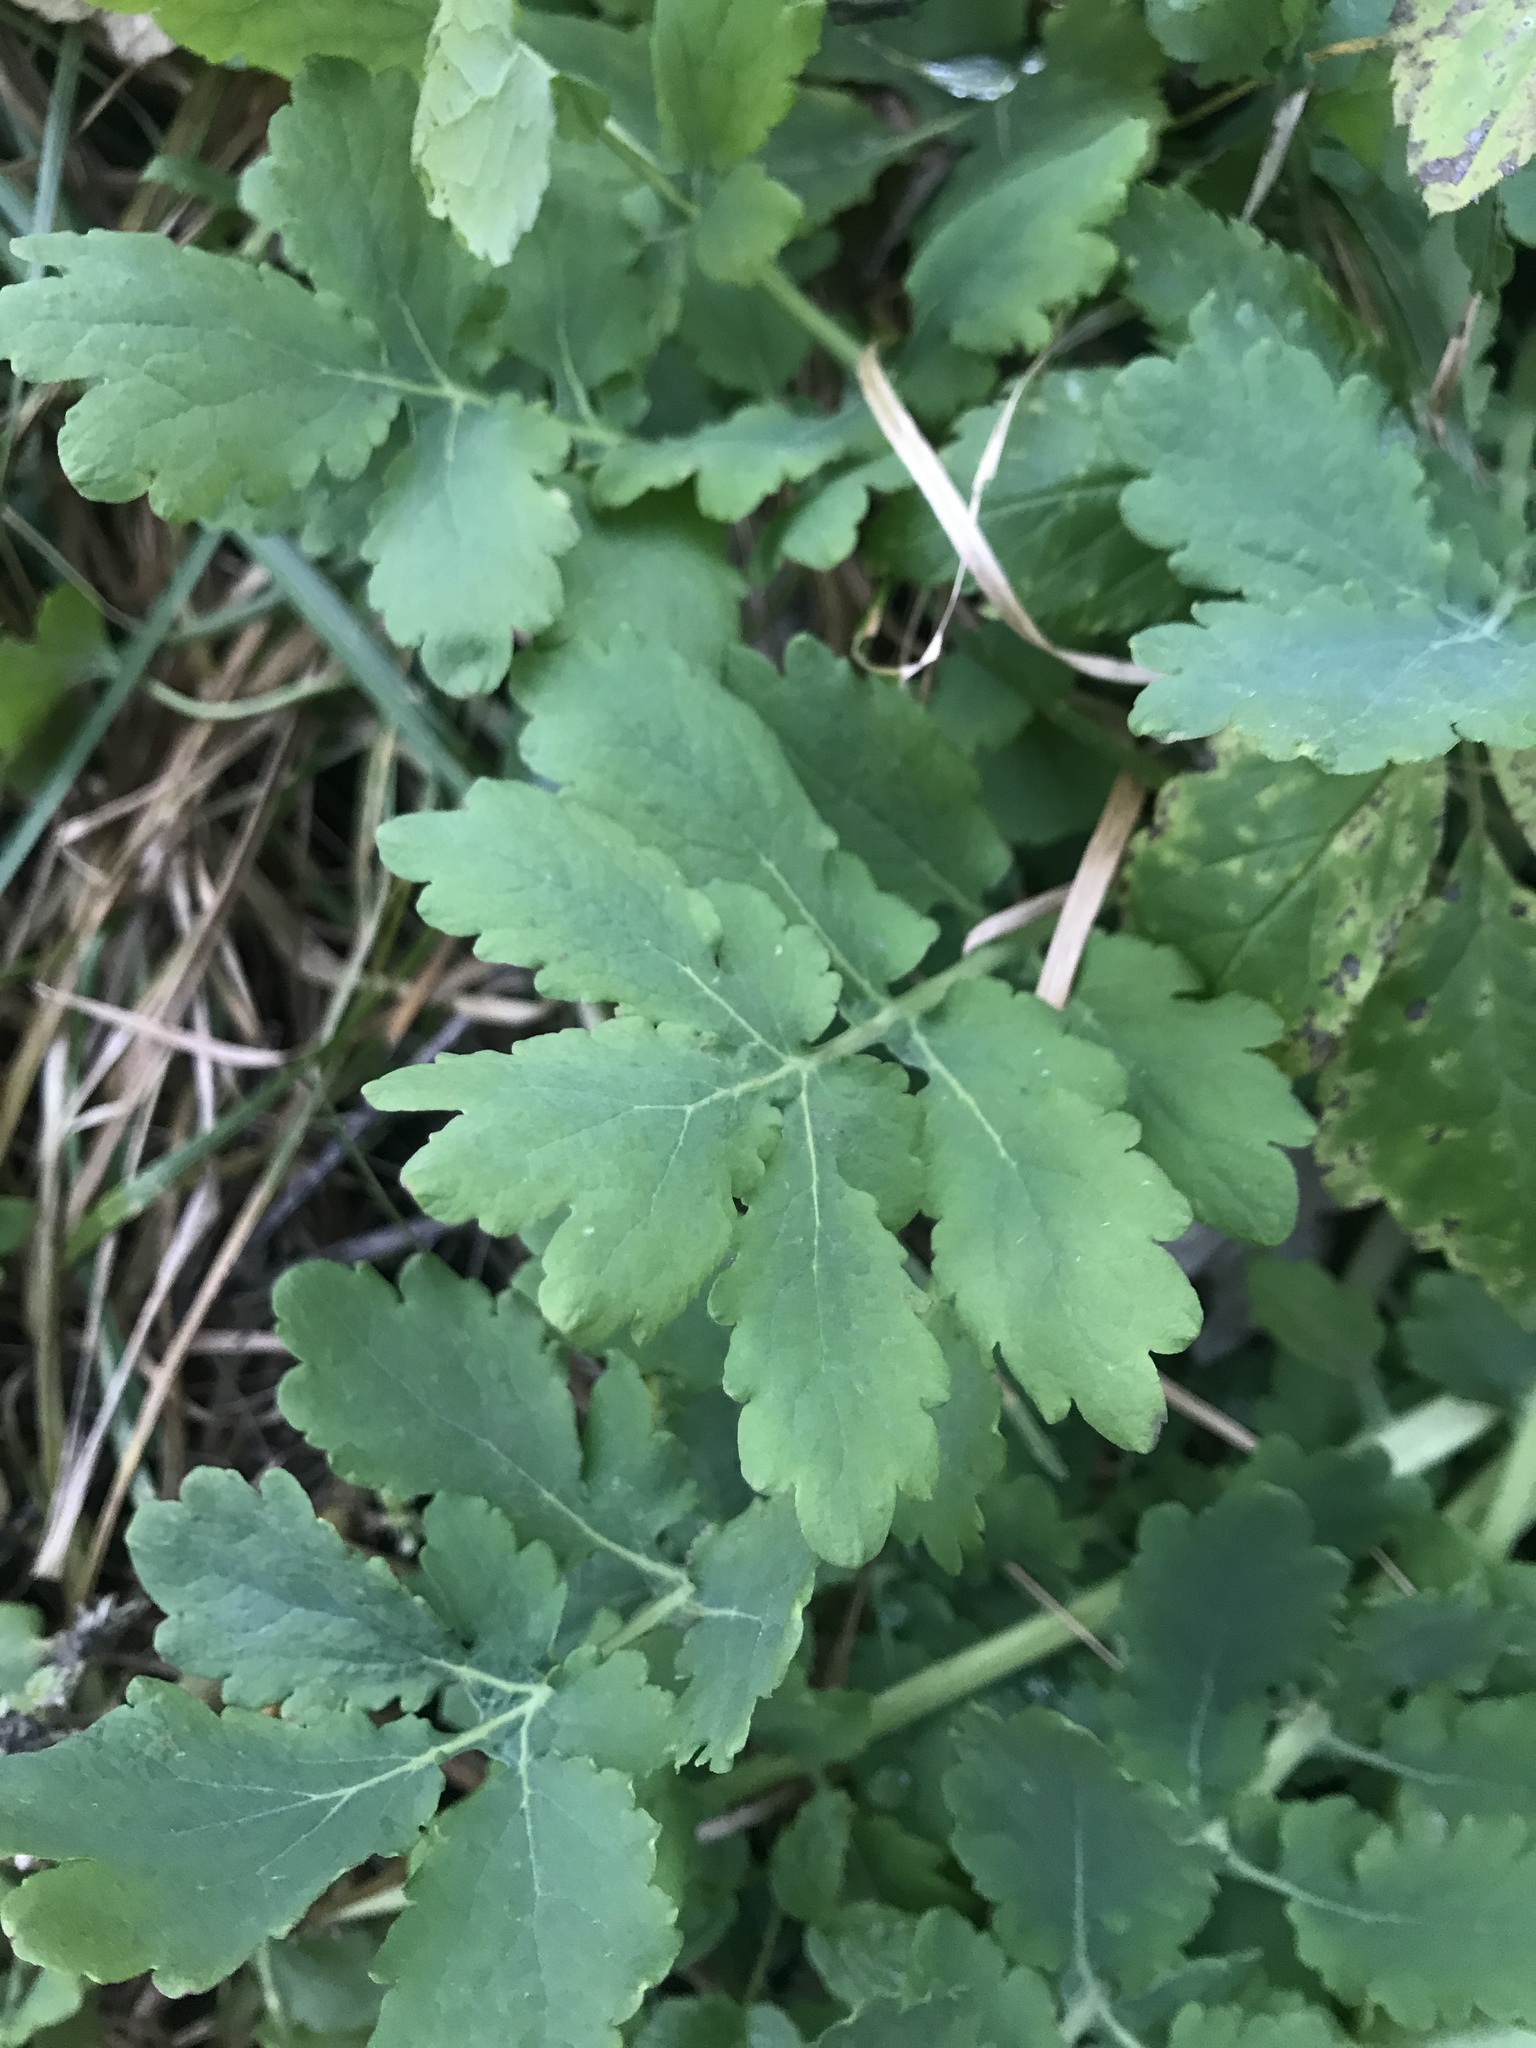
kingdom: Plantae
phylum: Tracheophyta
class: Magnoliopsida
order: Ranunculales
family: Papaveraceae
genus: Chelidonium
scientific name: Chelidonium majus
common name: Greater celandine
